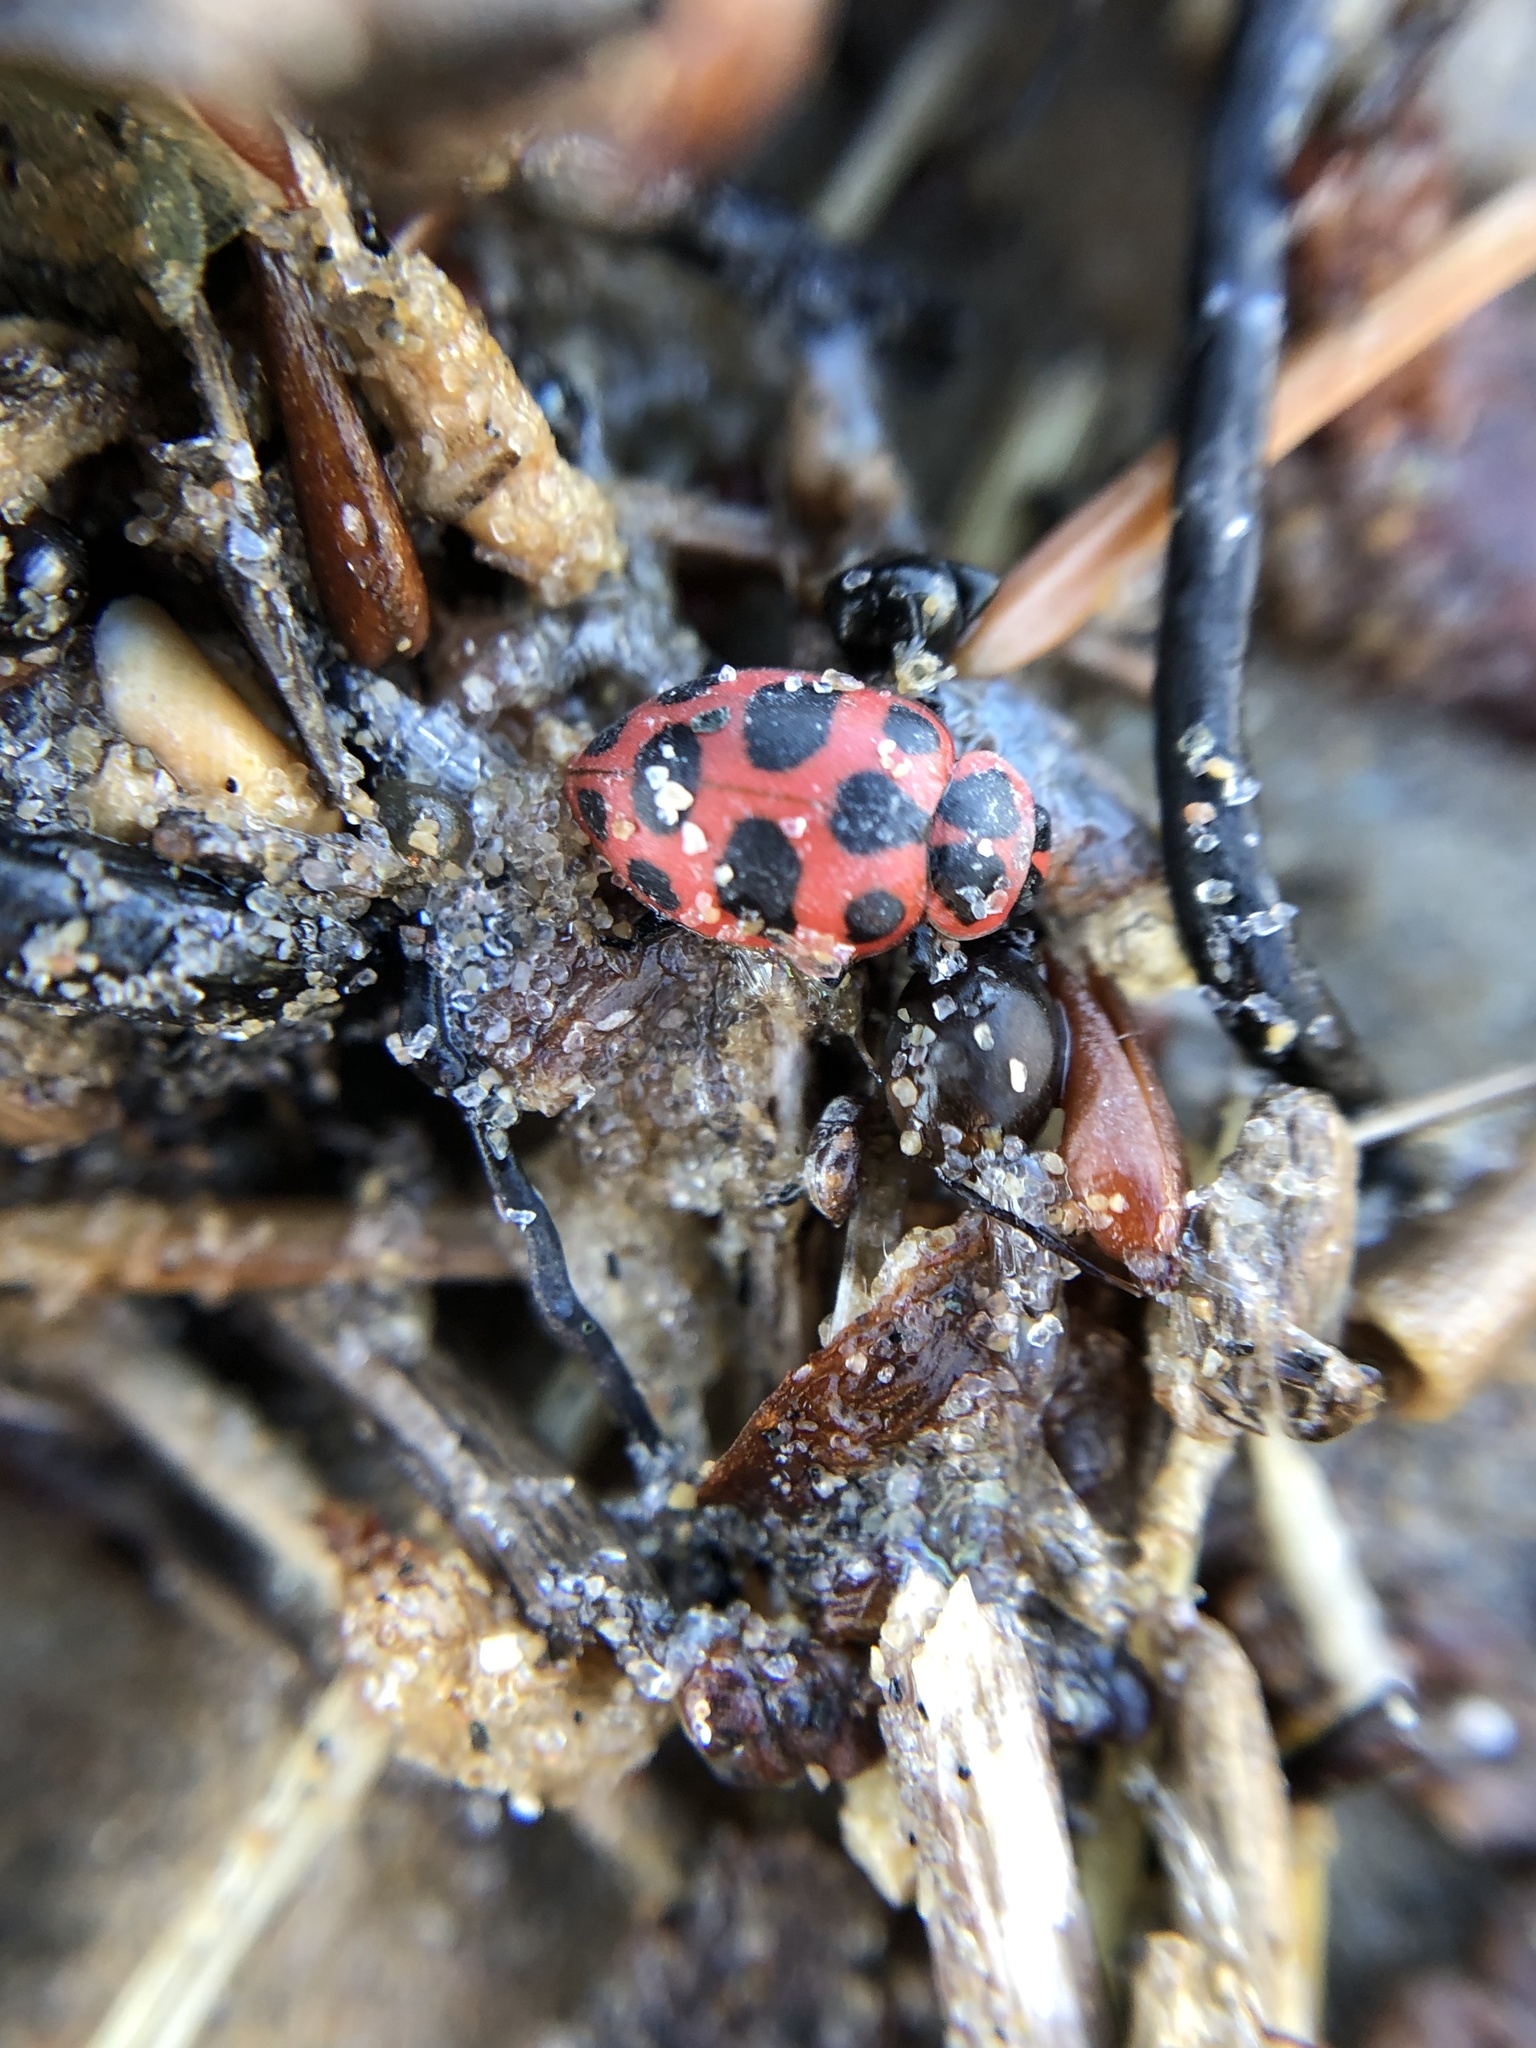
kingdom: Animalia
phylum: Arthropoda
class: Insecta
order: Coleoptera
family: Coccinellidae
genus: Coleomegilla
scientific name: Coleomegilla maculata
